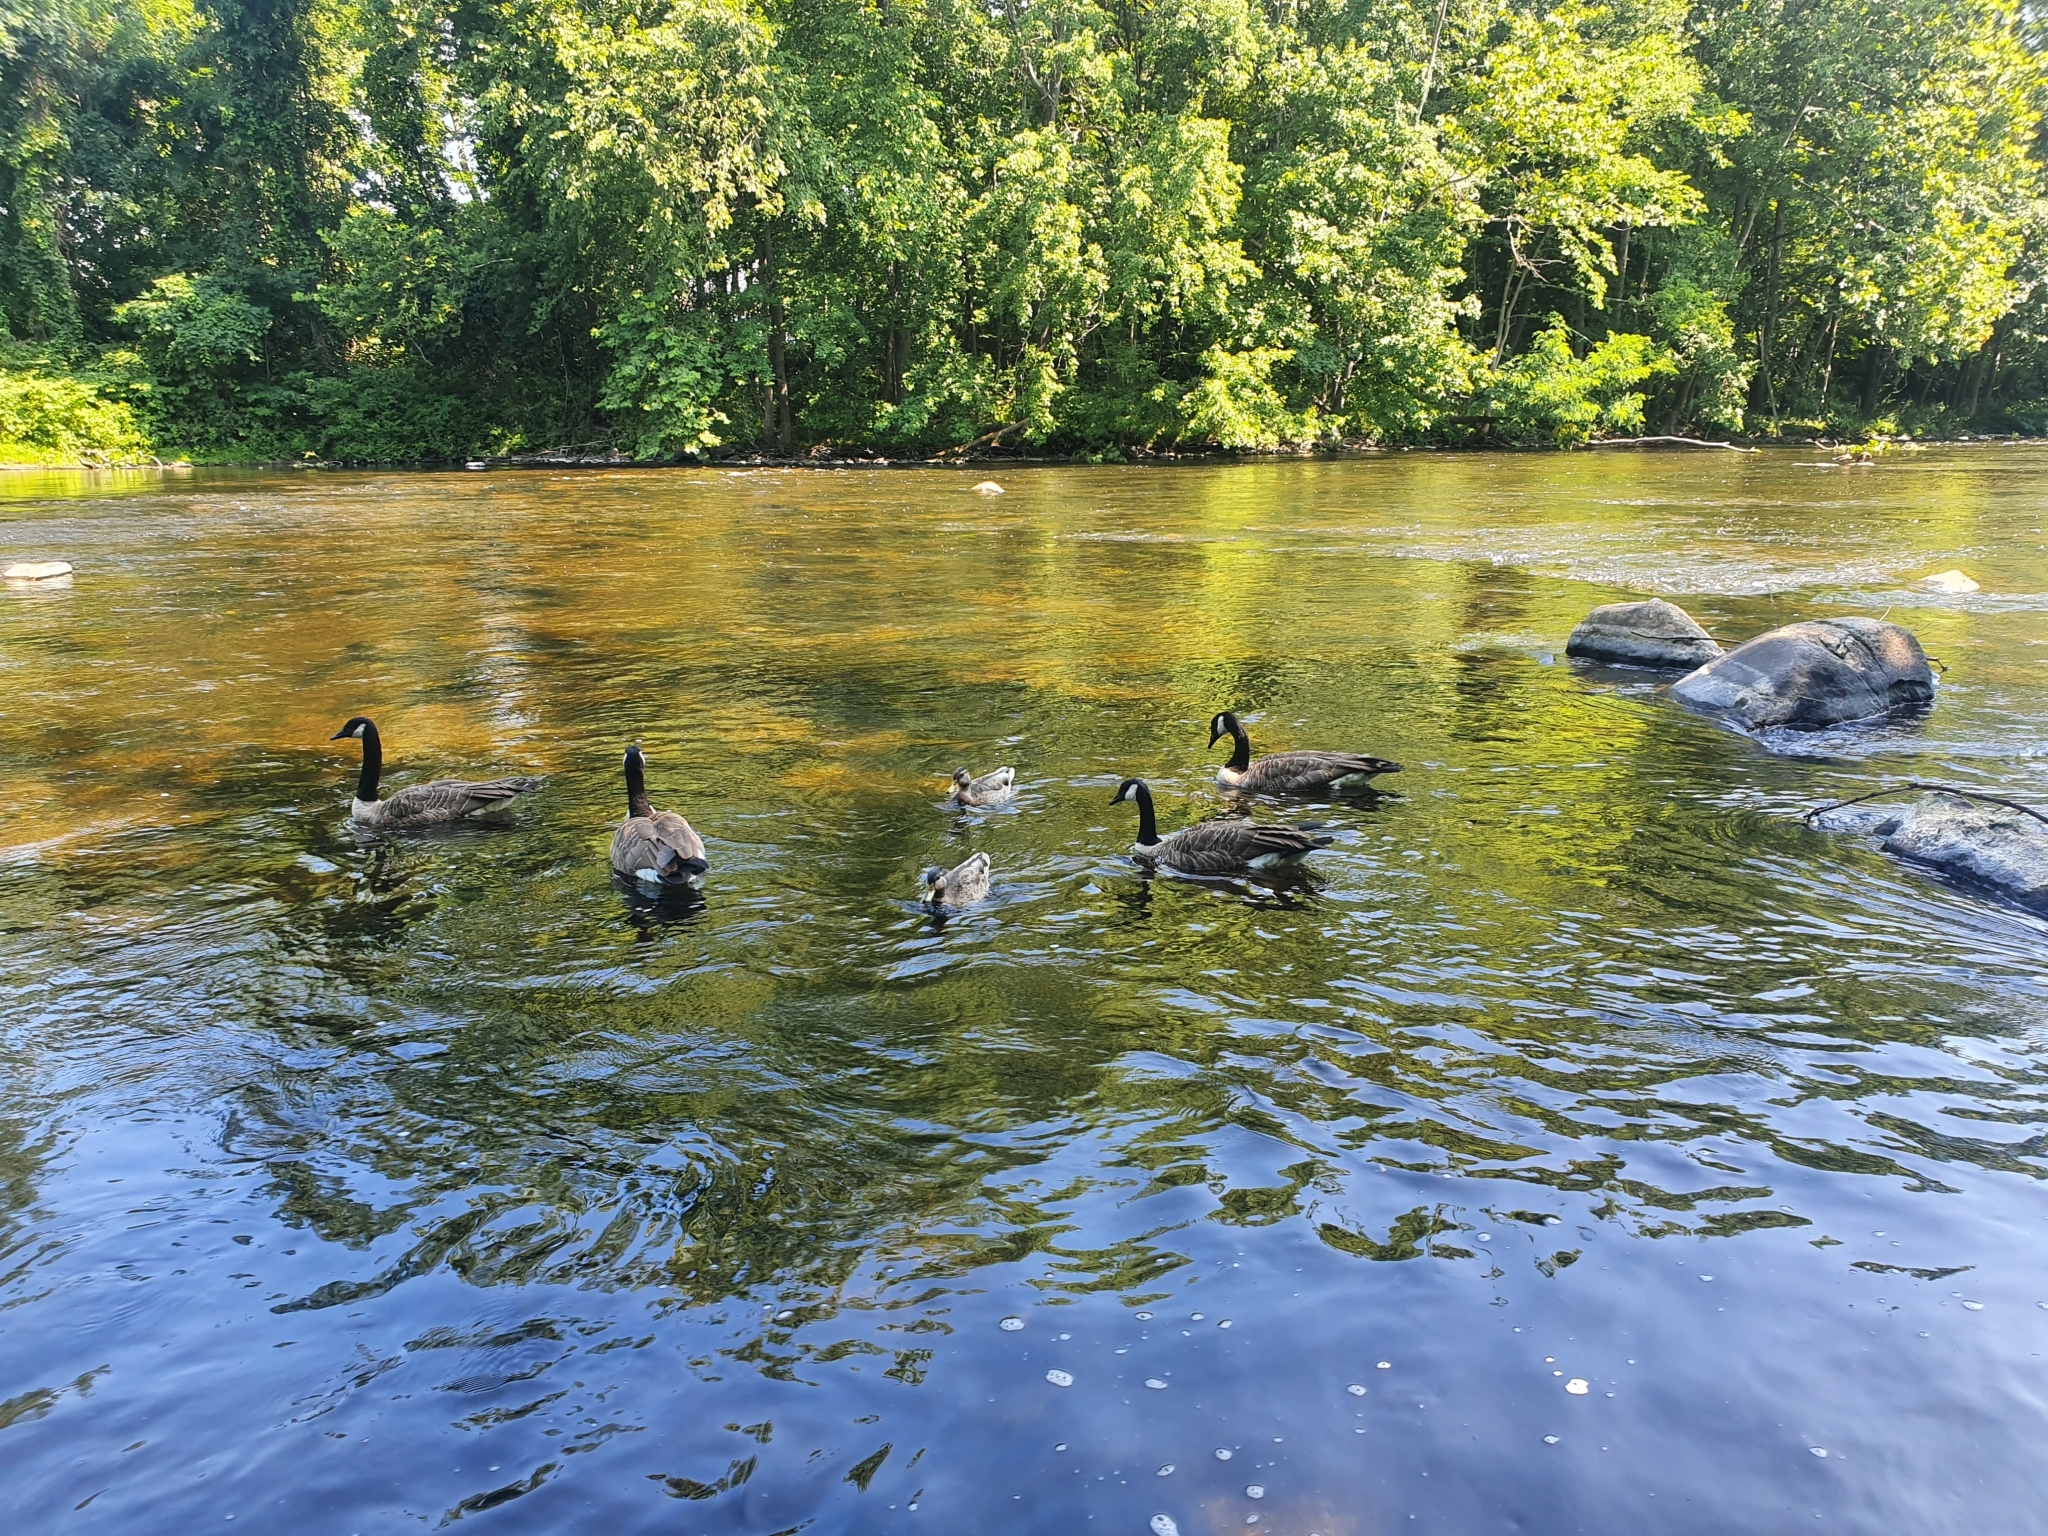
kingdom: Animalia
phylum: Chordata
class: Aves
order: Anseriformes
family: Anatidae
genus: Branta
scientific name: Branta canadensis
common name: Canada goose
